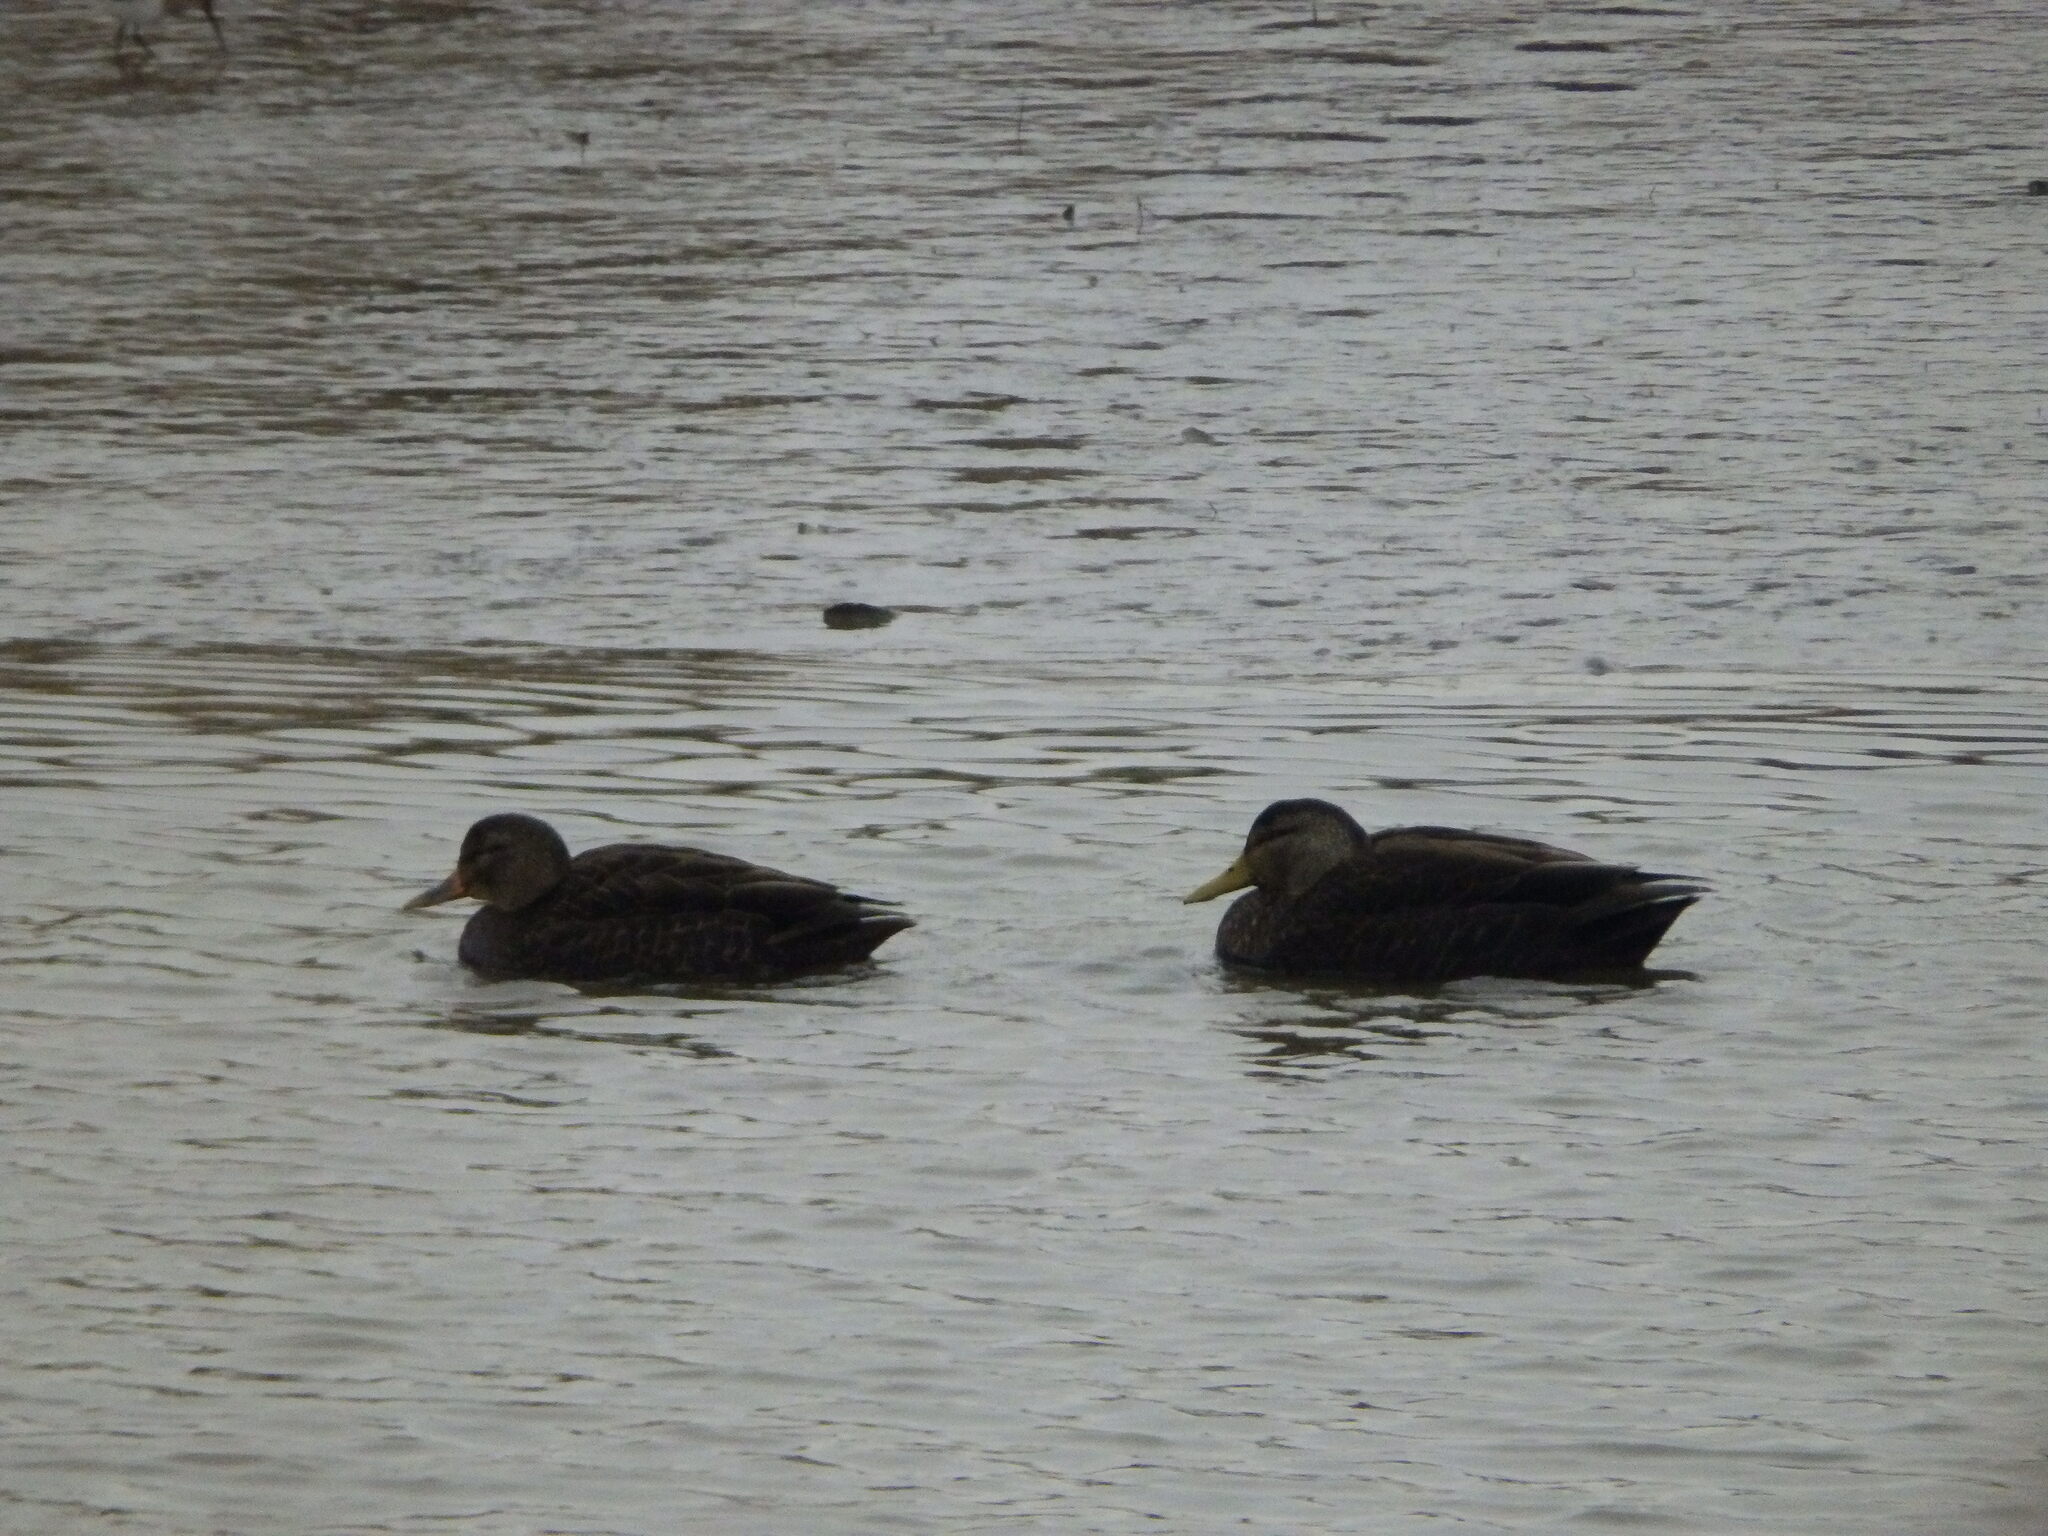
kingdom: Animalia
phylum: Chordata
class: Aves
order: Anseriformes
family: Anatidae
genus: Anas
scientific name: Anas rubripes
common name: American black duck
